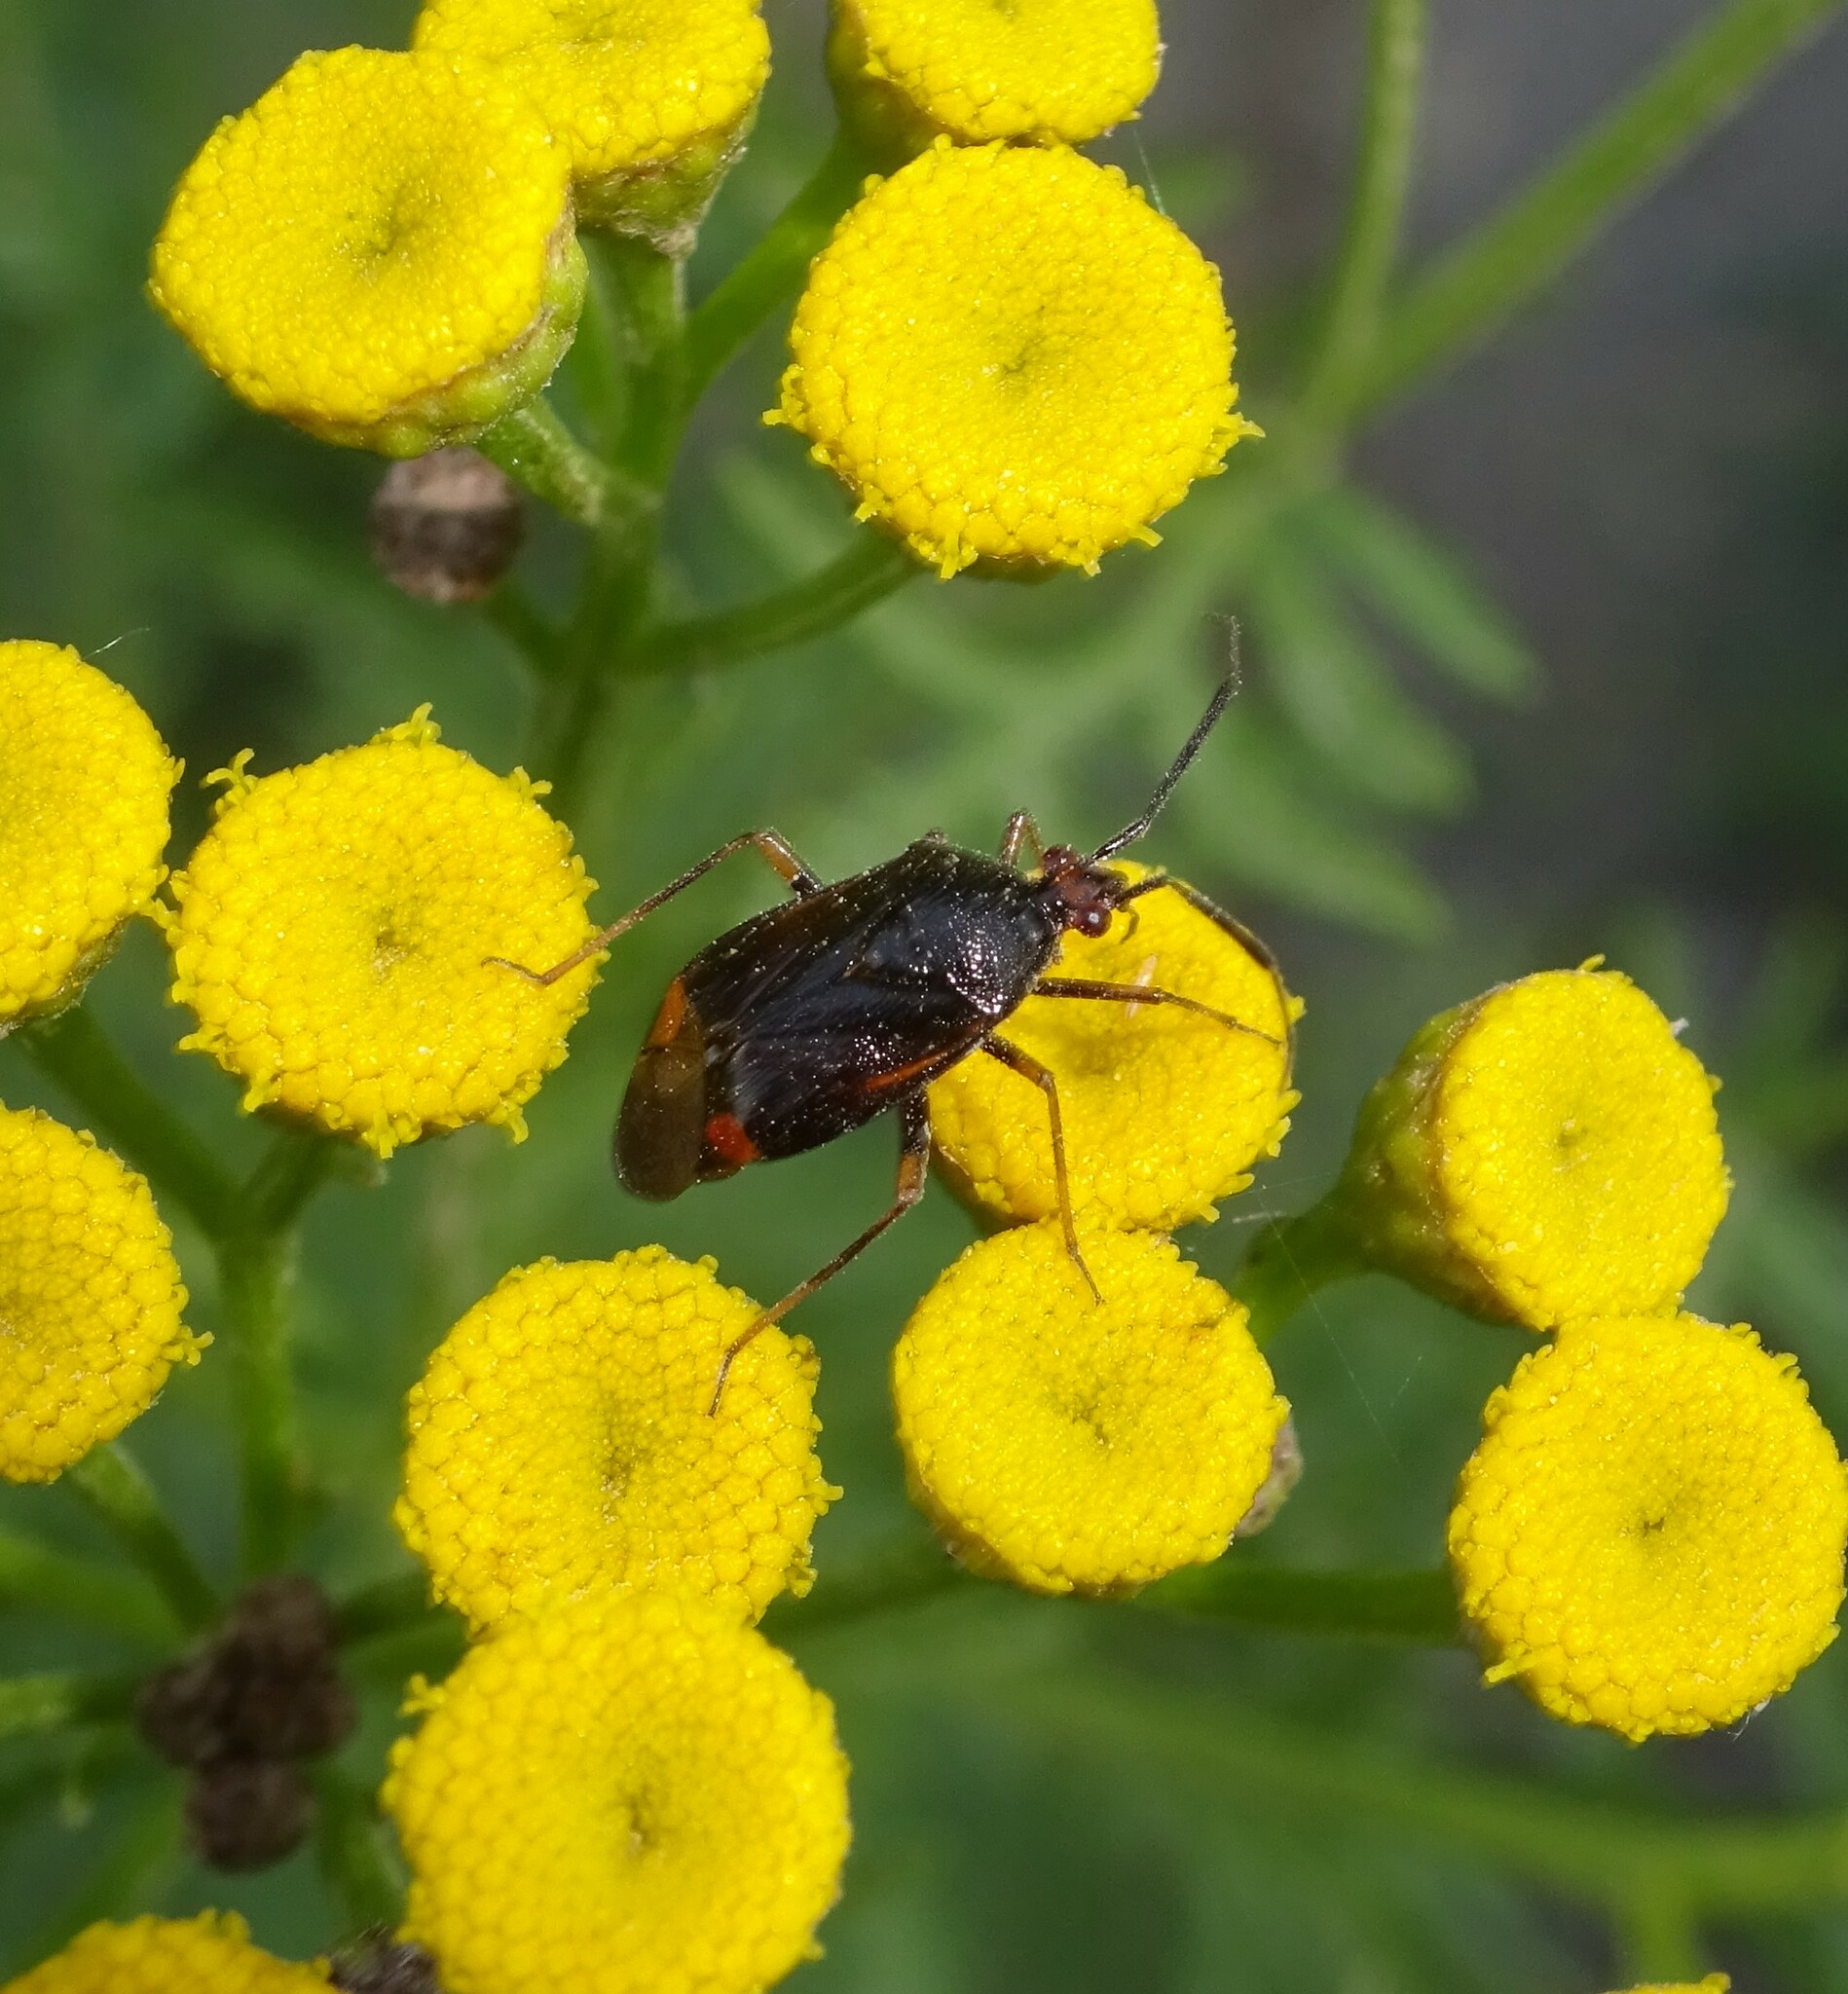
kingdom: Animalia
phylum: Arthropoda
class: Insecta
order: Hemiptera
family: Miridae
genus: Deraeocoris
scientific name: Deraeocoris ruber
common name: Plant bug
